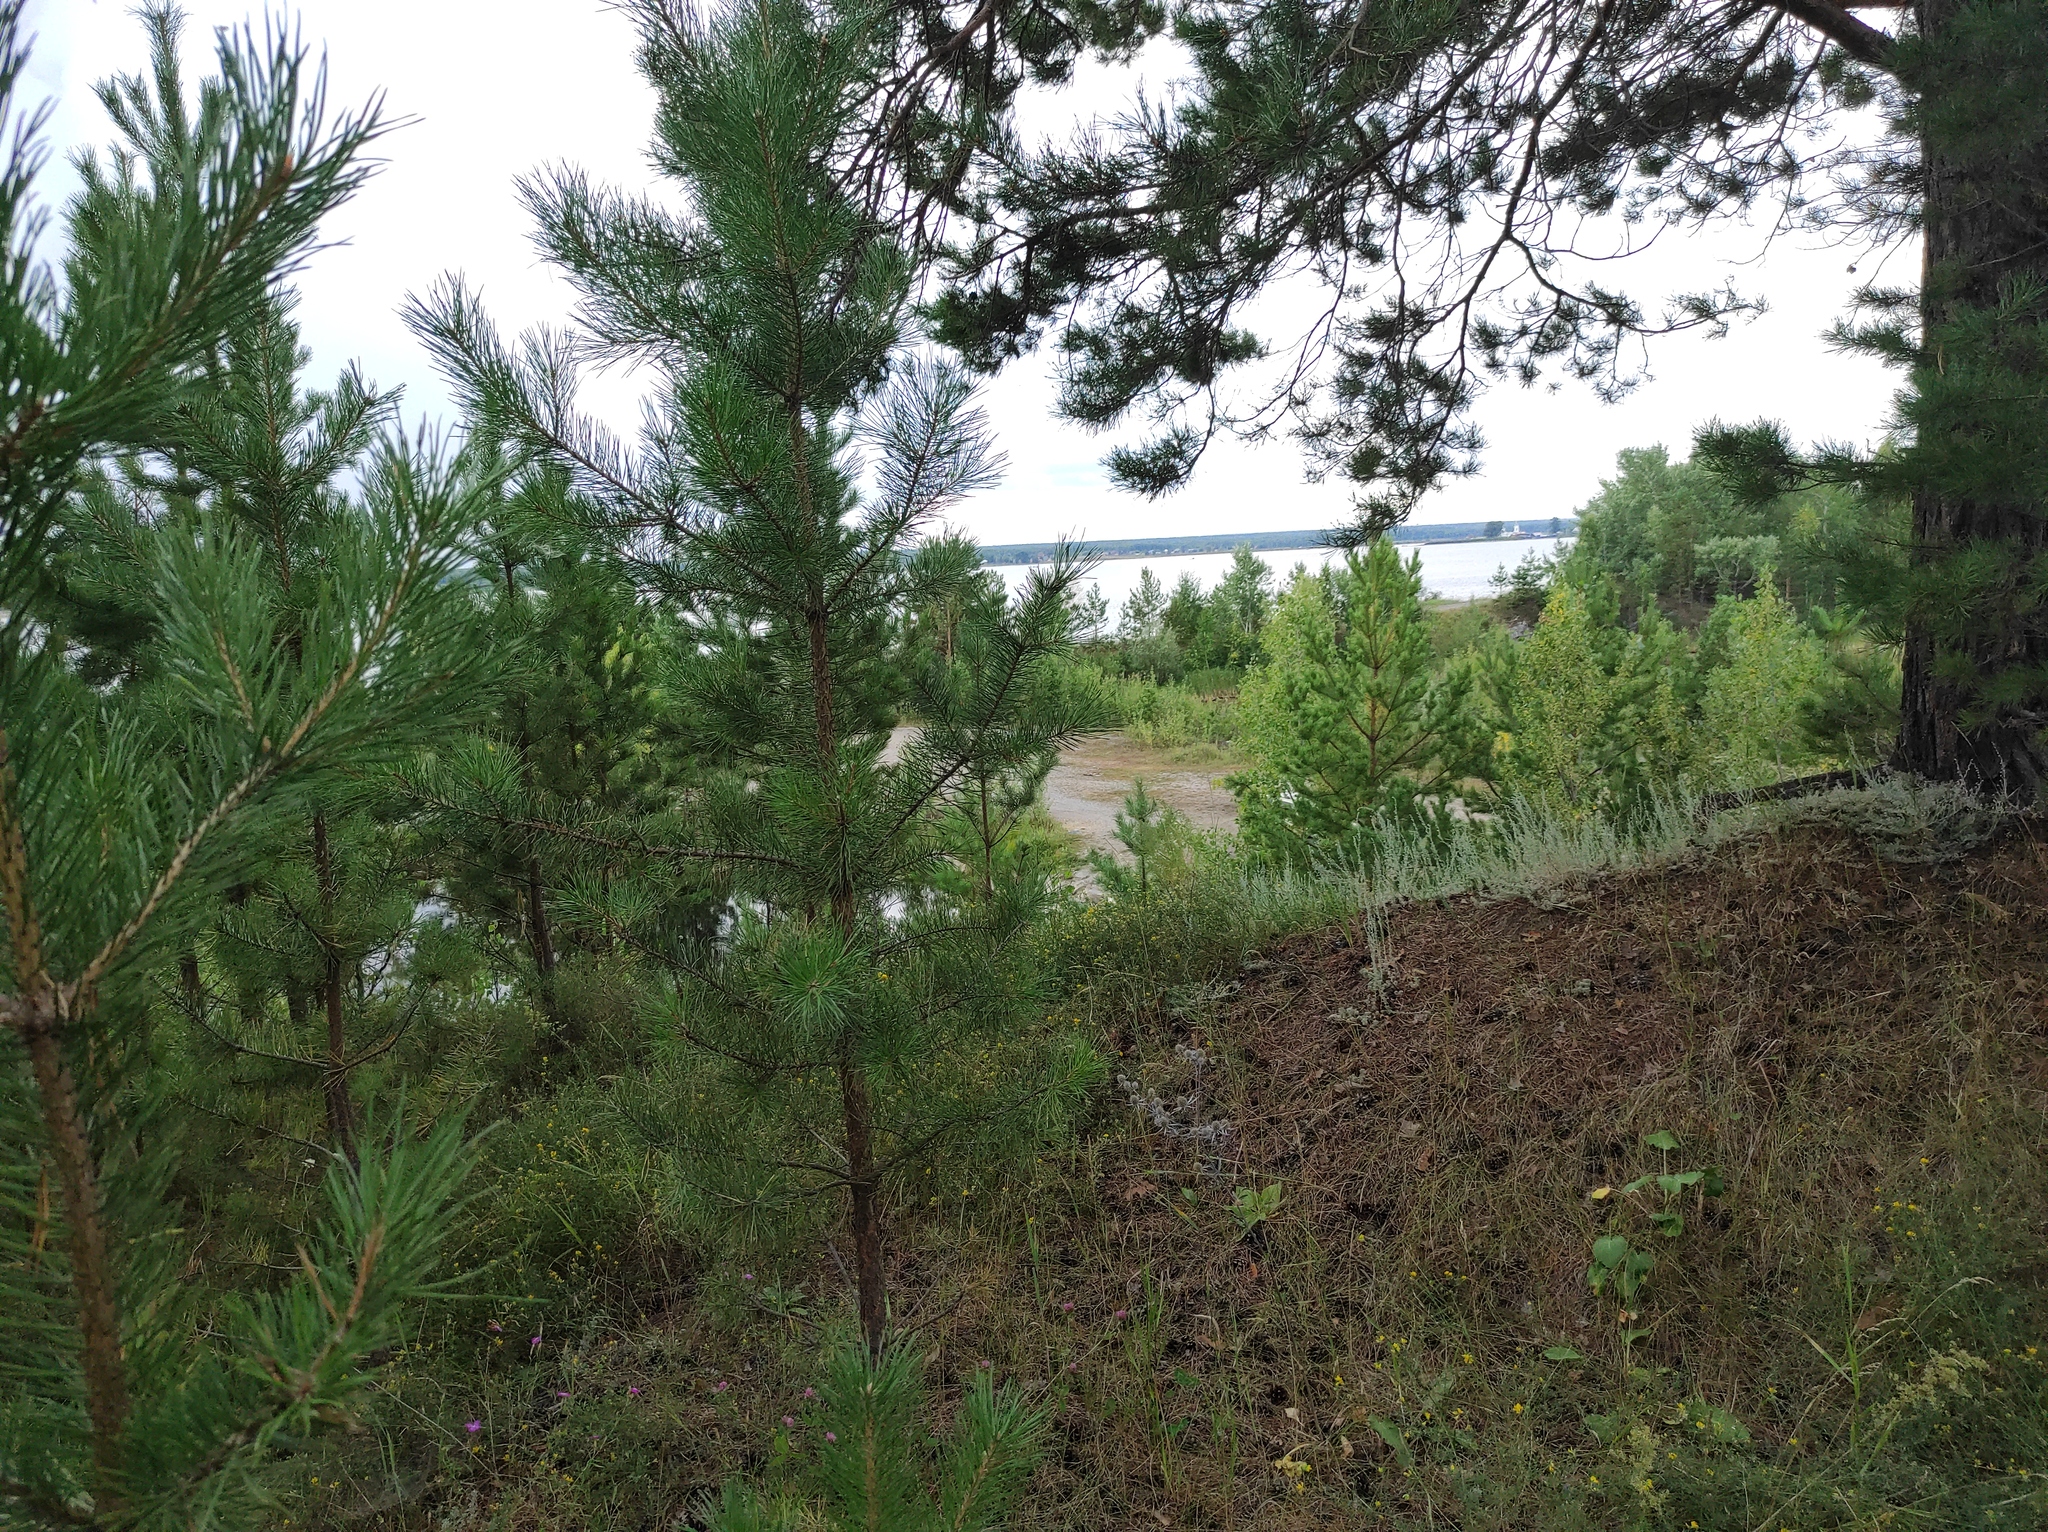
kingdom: Plantae
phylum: Tracheophyta
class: Pinopsida
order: Pinales
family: Pinaceae
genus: Pinus
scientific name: Pinus sylvestris
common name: Scots pine
